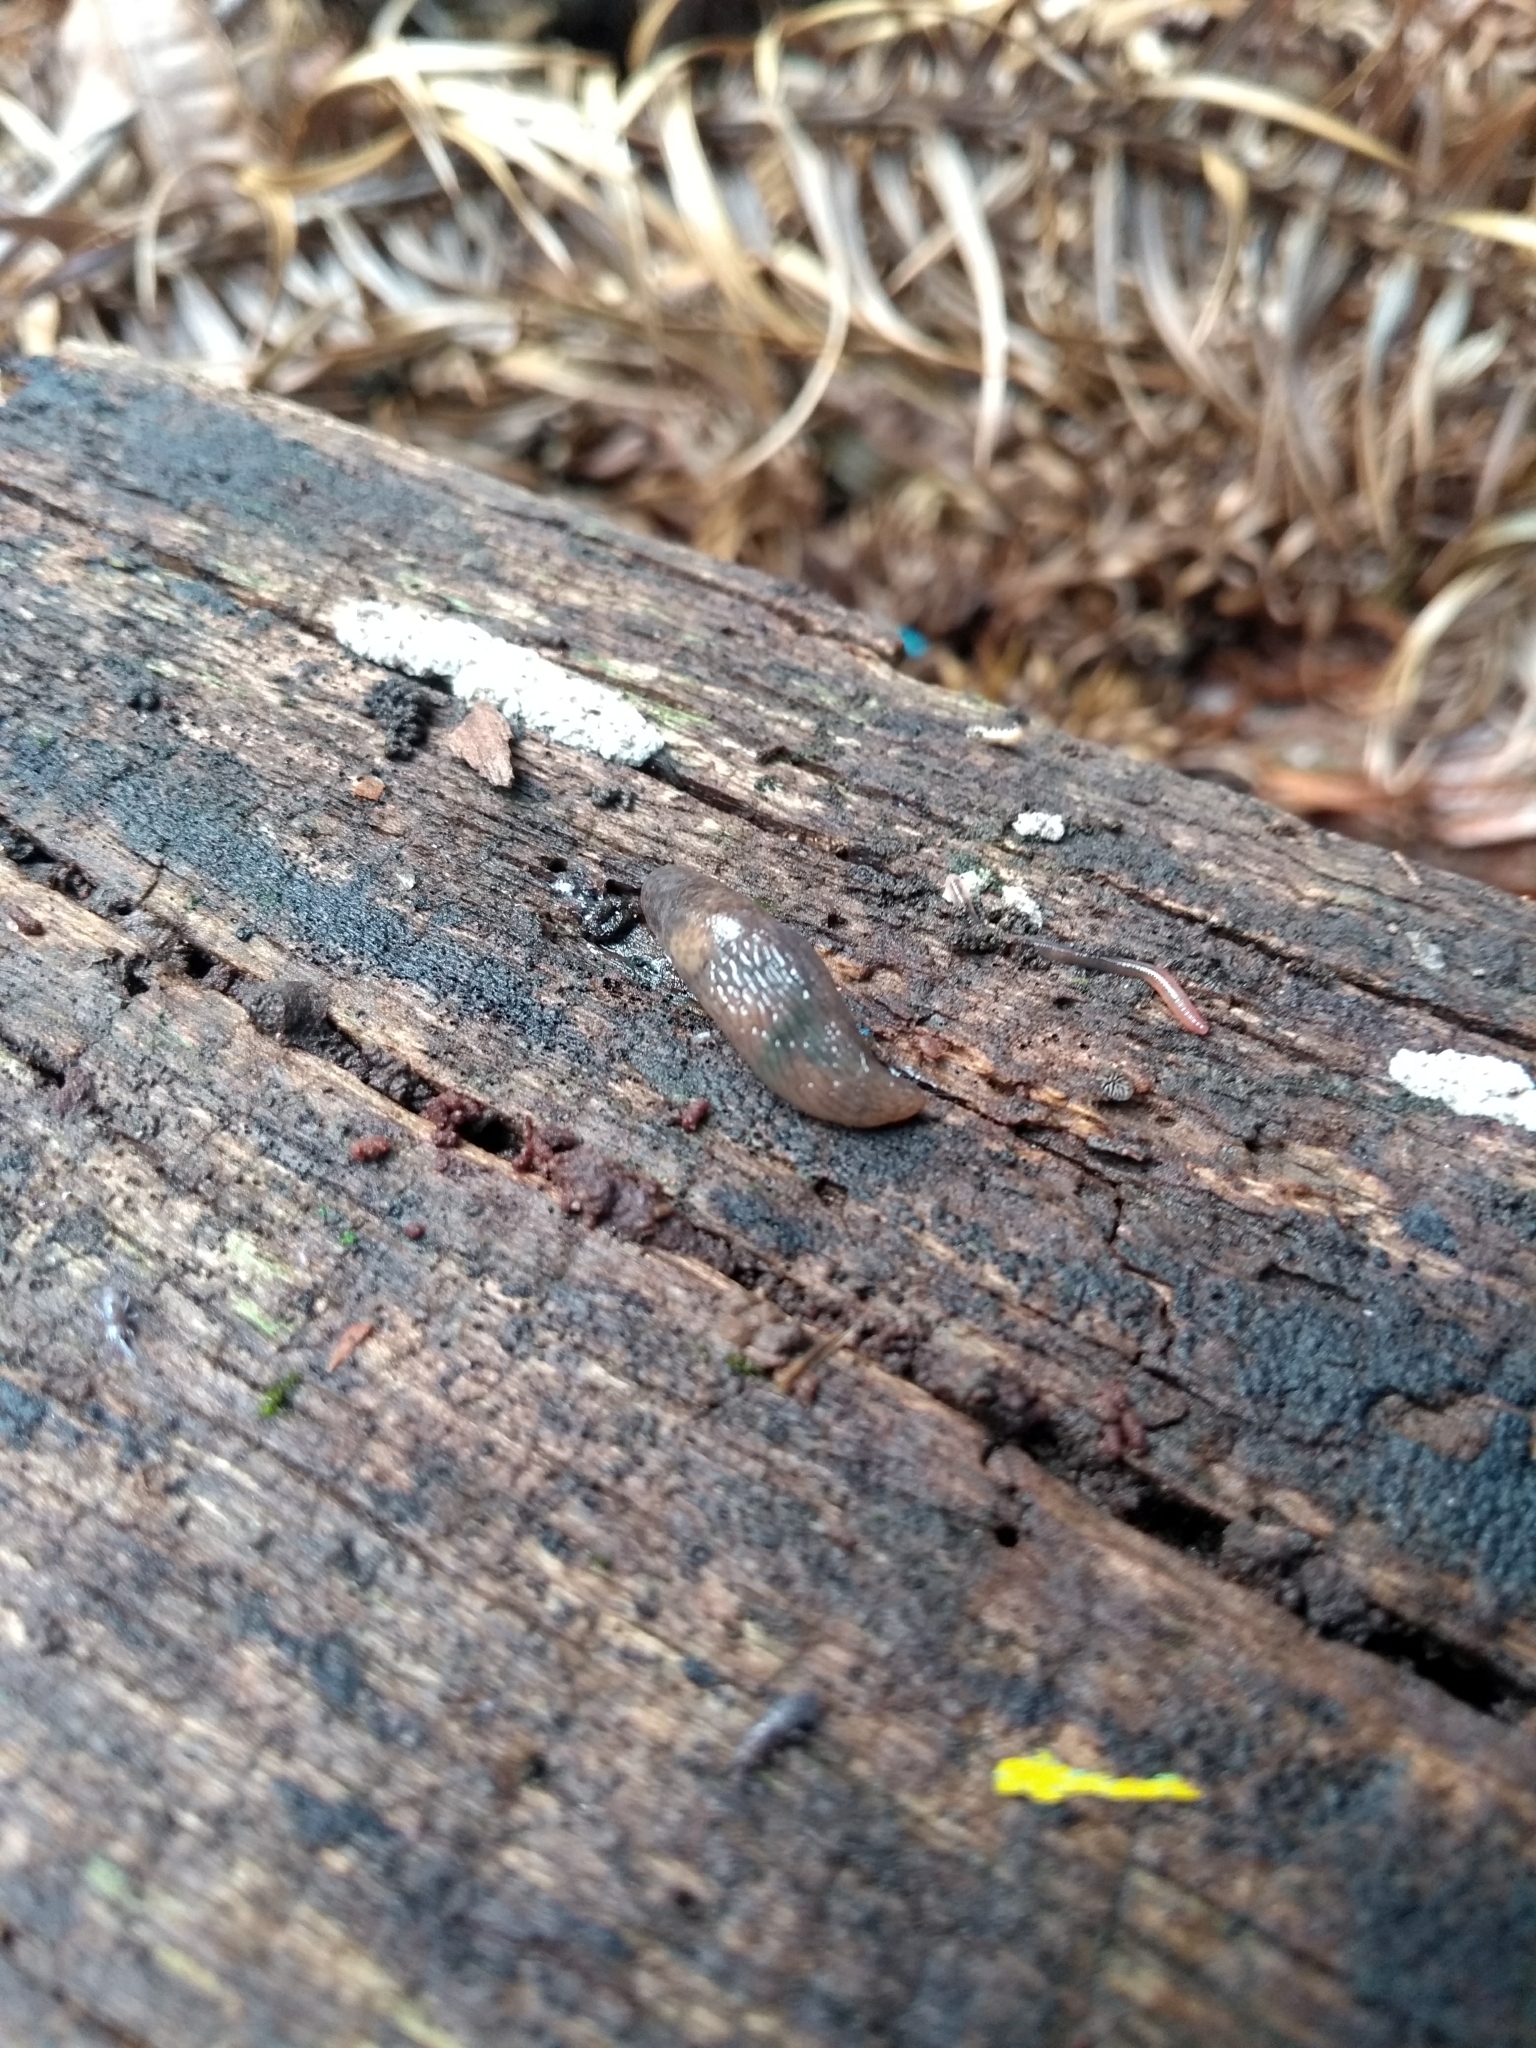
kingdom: Animalia
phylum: Mollusca
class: Gastropoda
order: Stylommatophora
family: Agriolimacidae
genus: Deroceras
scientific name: Deroceras laeve
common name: Marsh slug
